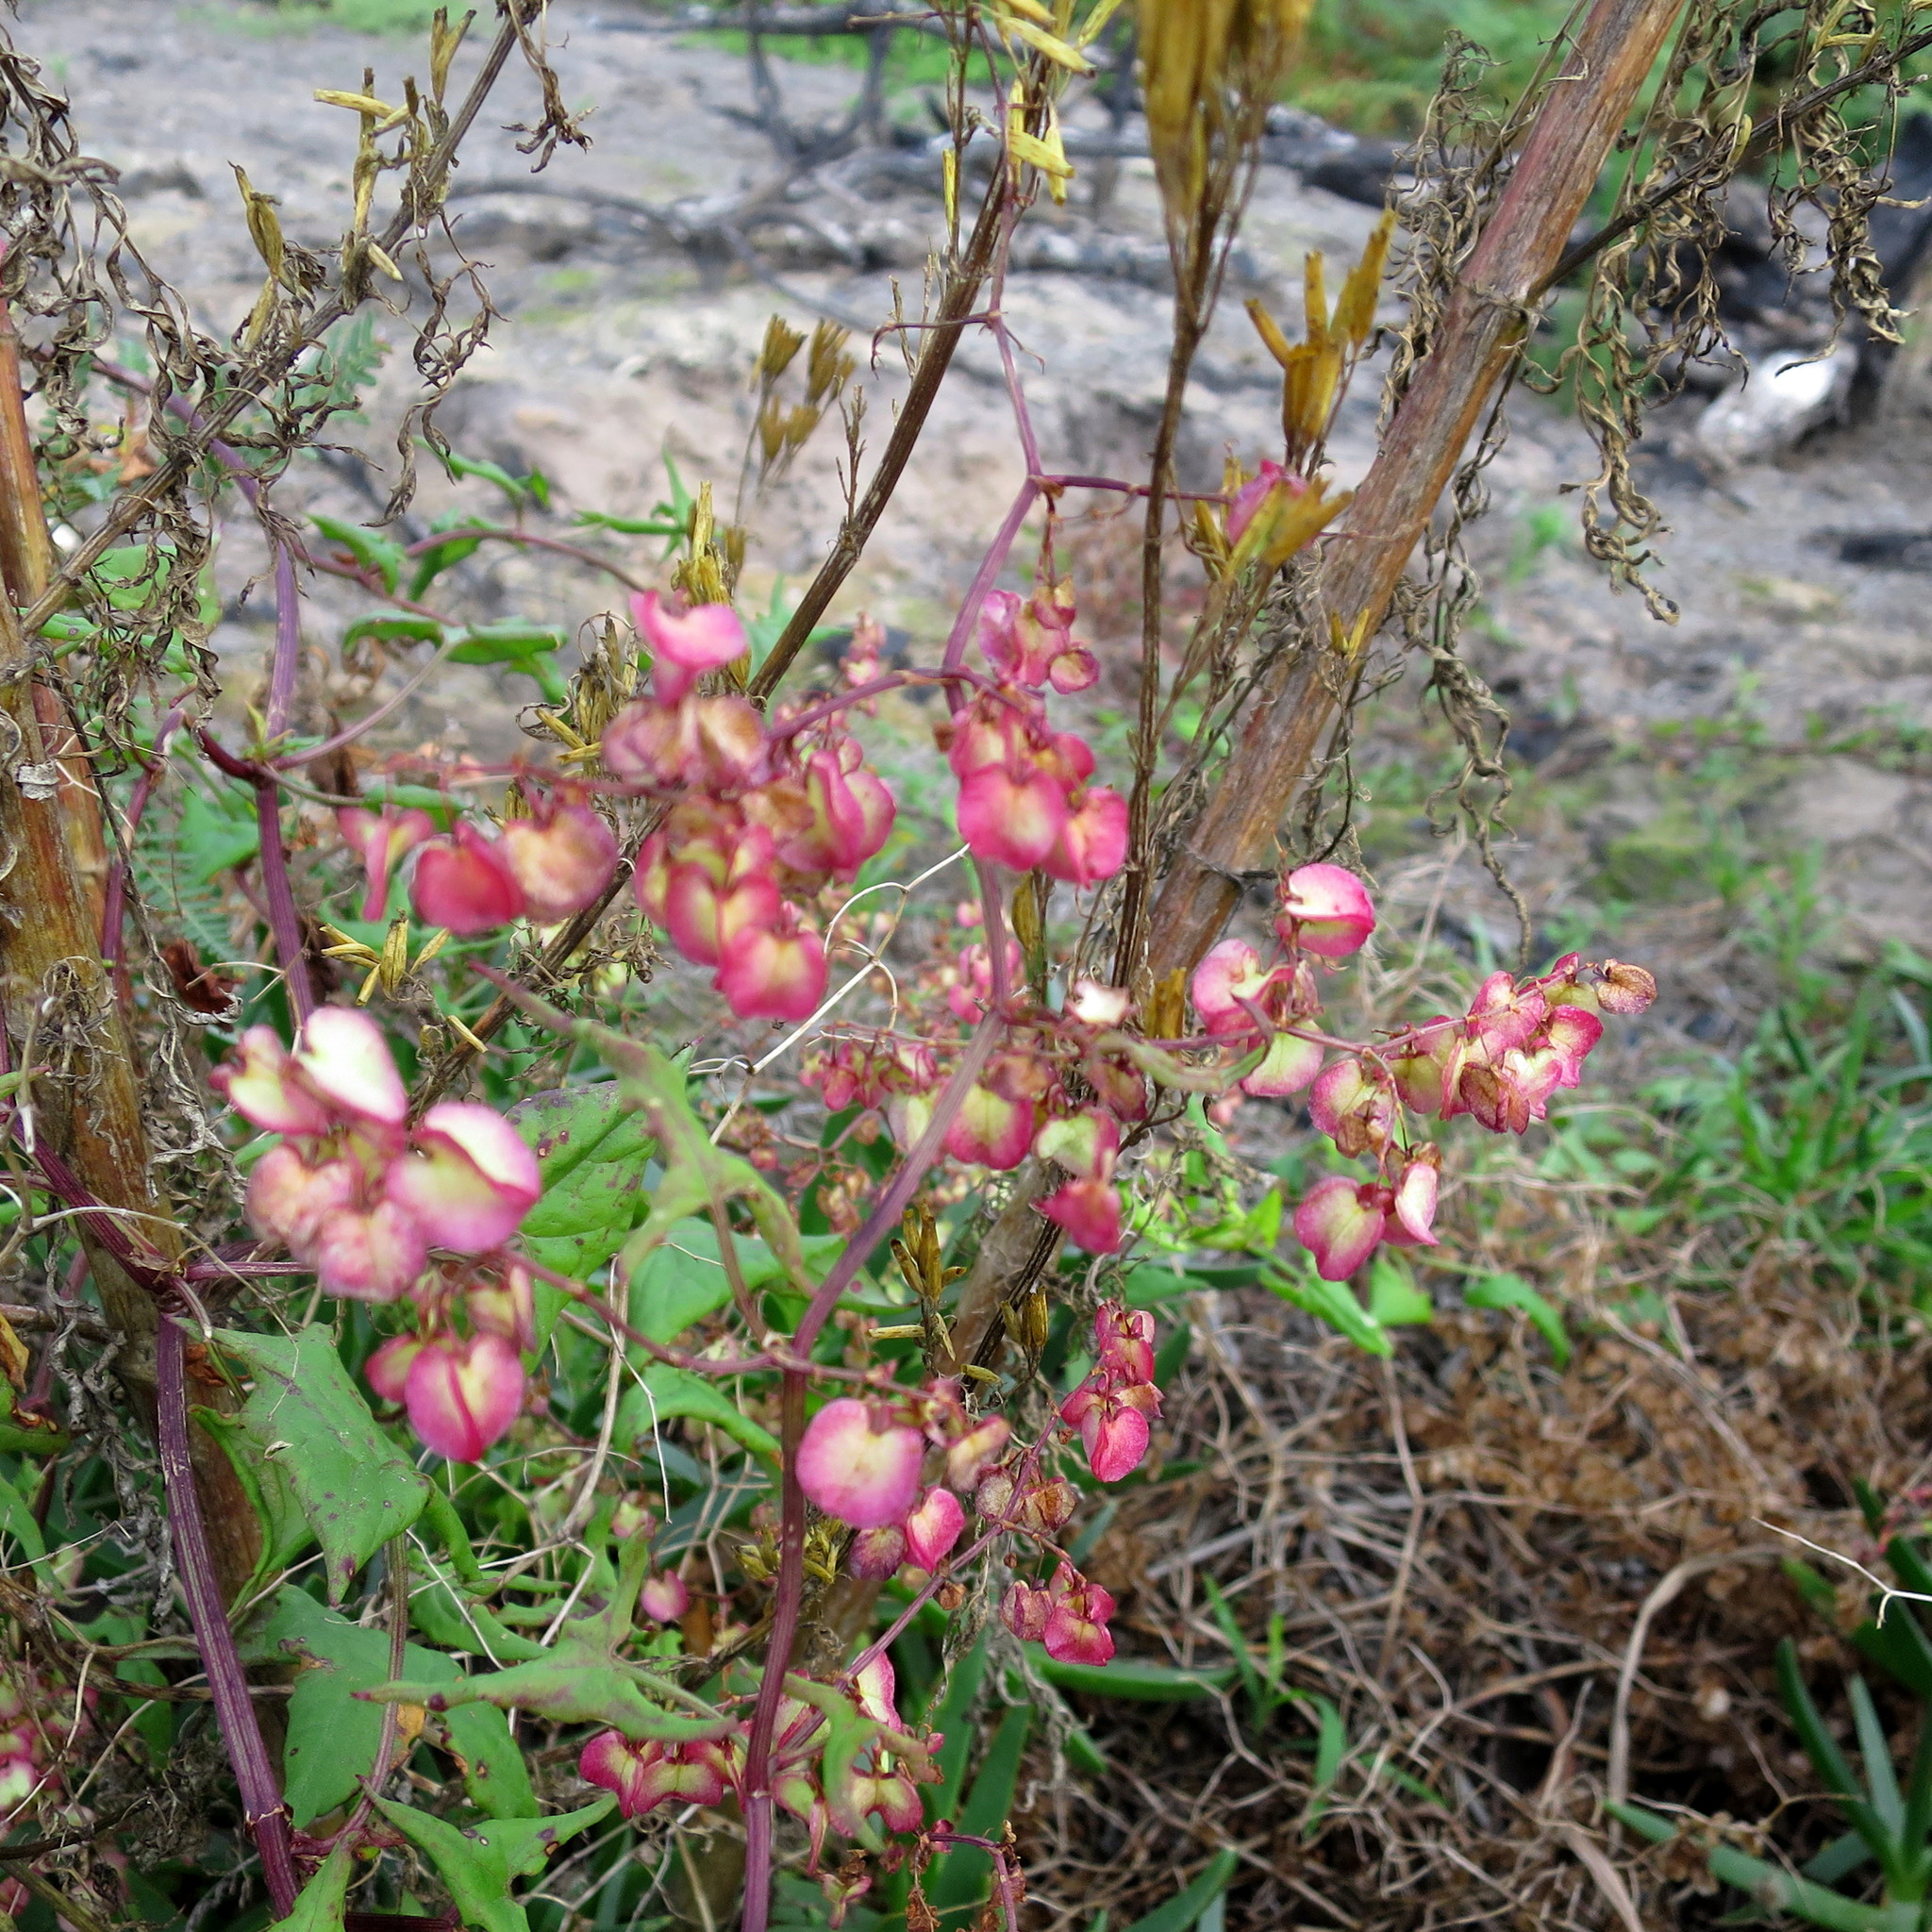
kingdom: Plantae
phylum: Tracheophyta
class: Magnoliopsida
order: Caryophyllales
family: Polygonaceae
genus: Rumex
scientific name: Rumex sagittatus
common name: Climbing dock
